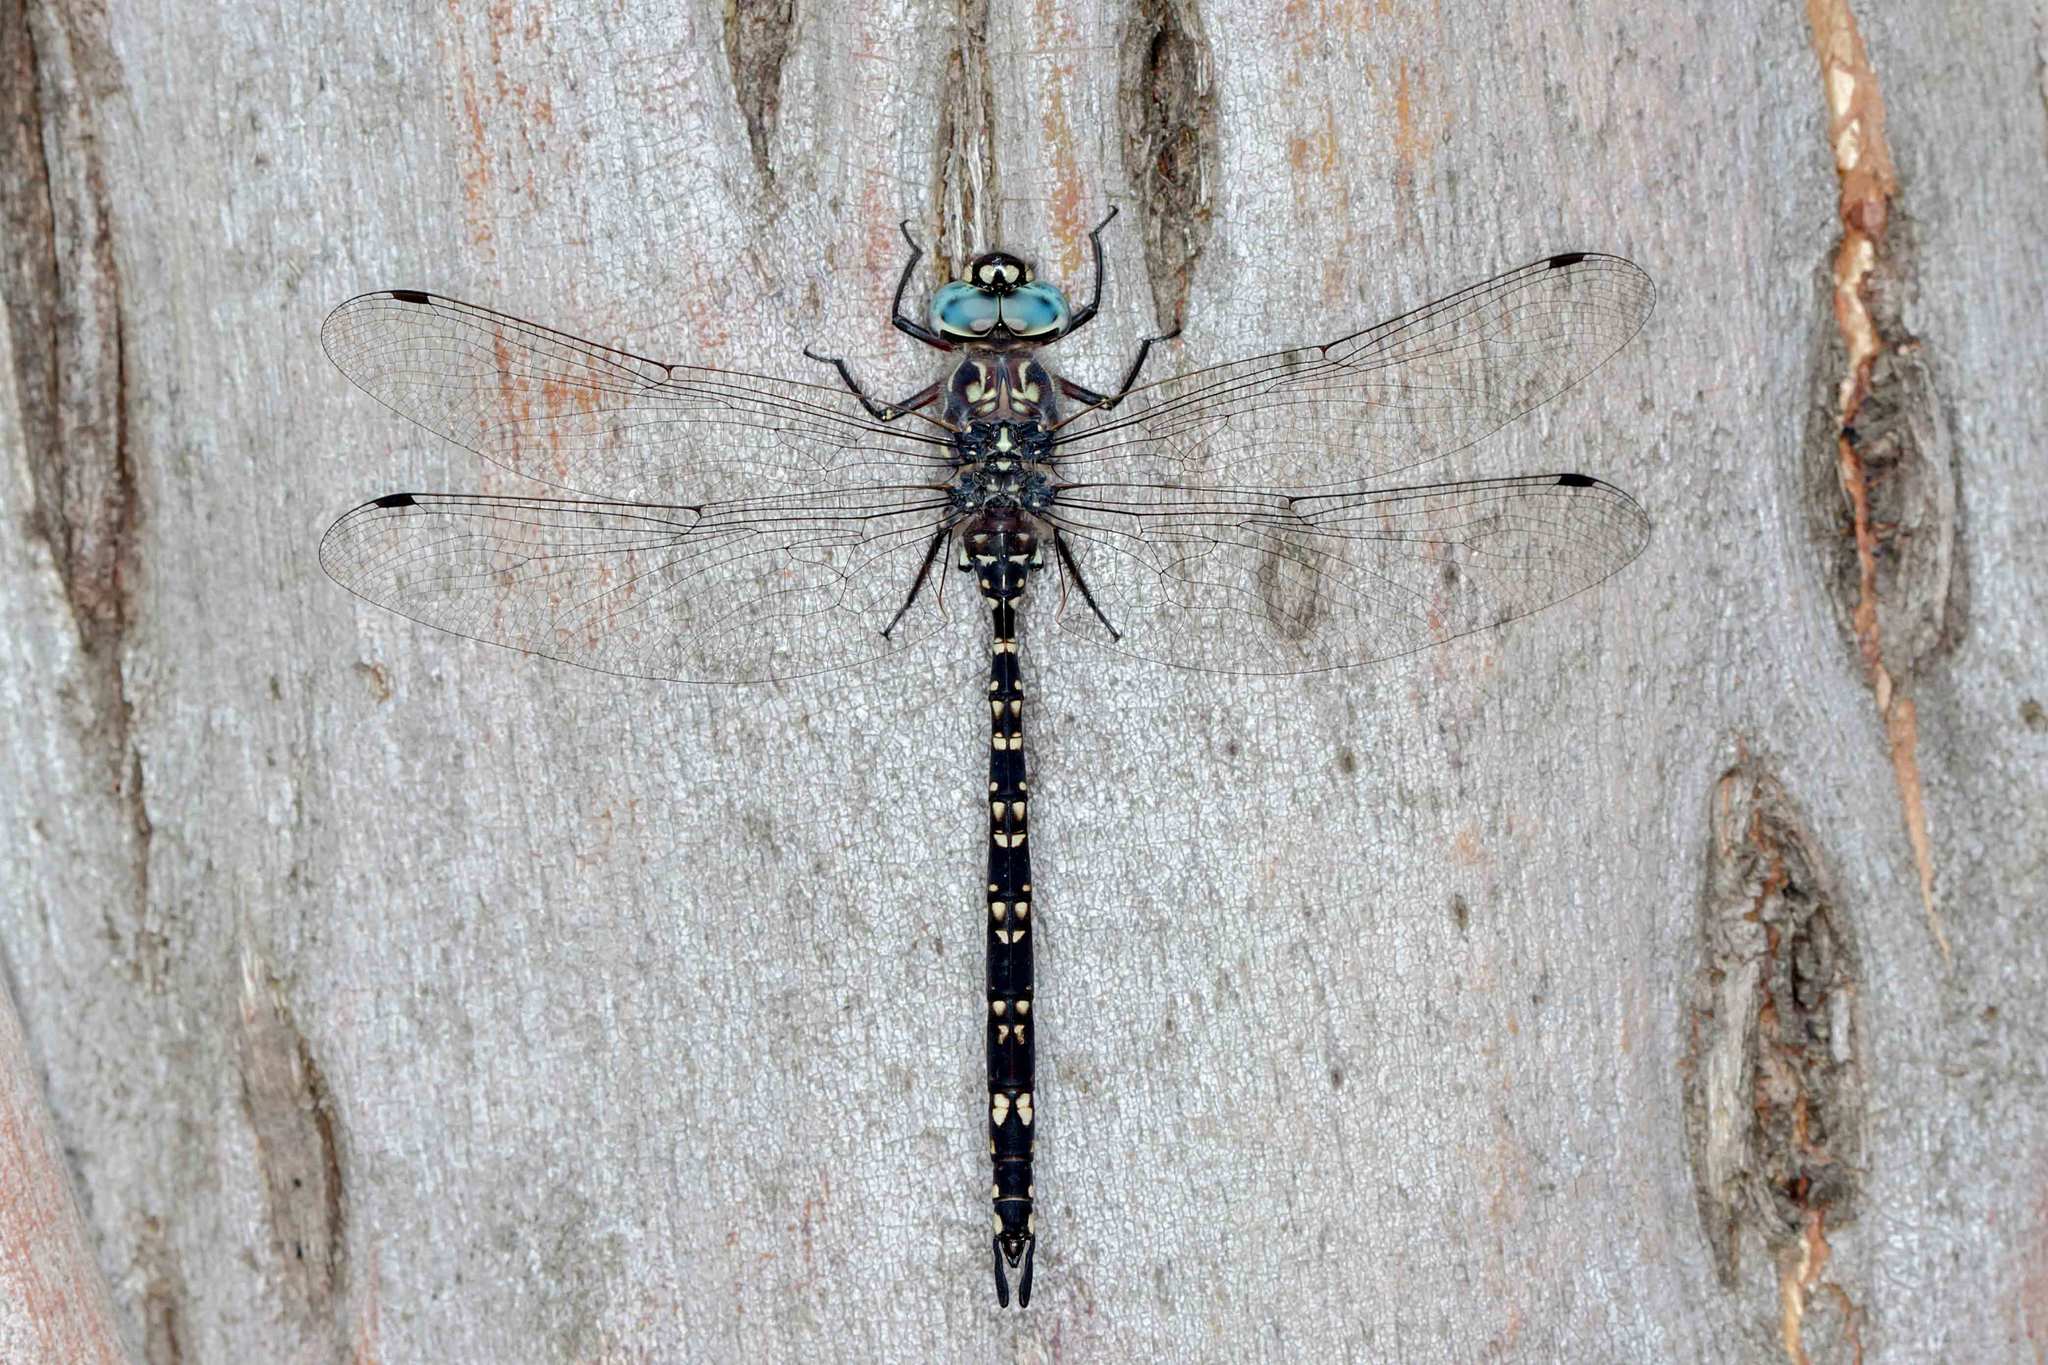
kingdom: Animalia
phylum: Arthropoda
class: Insecta
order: Odonata
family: Aeshnidae
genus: Austroaeschna
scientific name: Austroaeschna parvistigma
